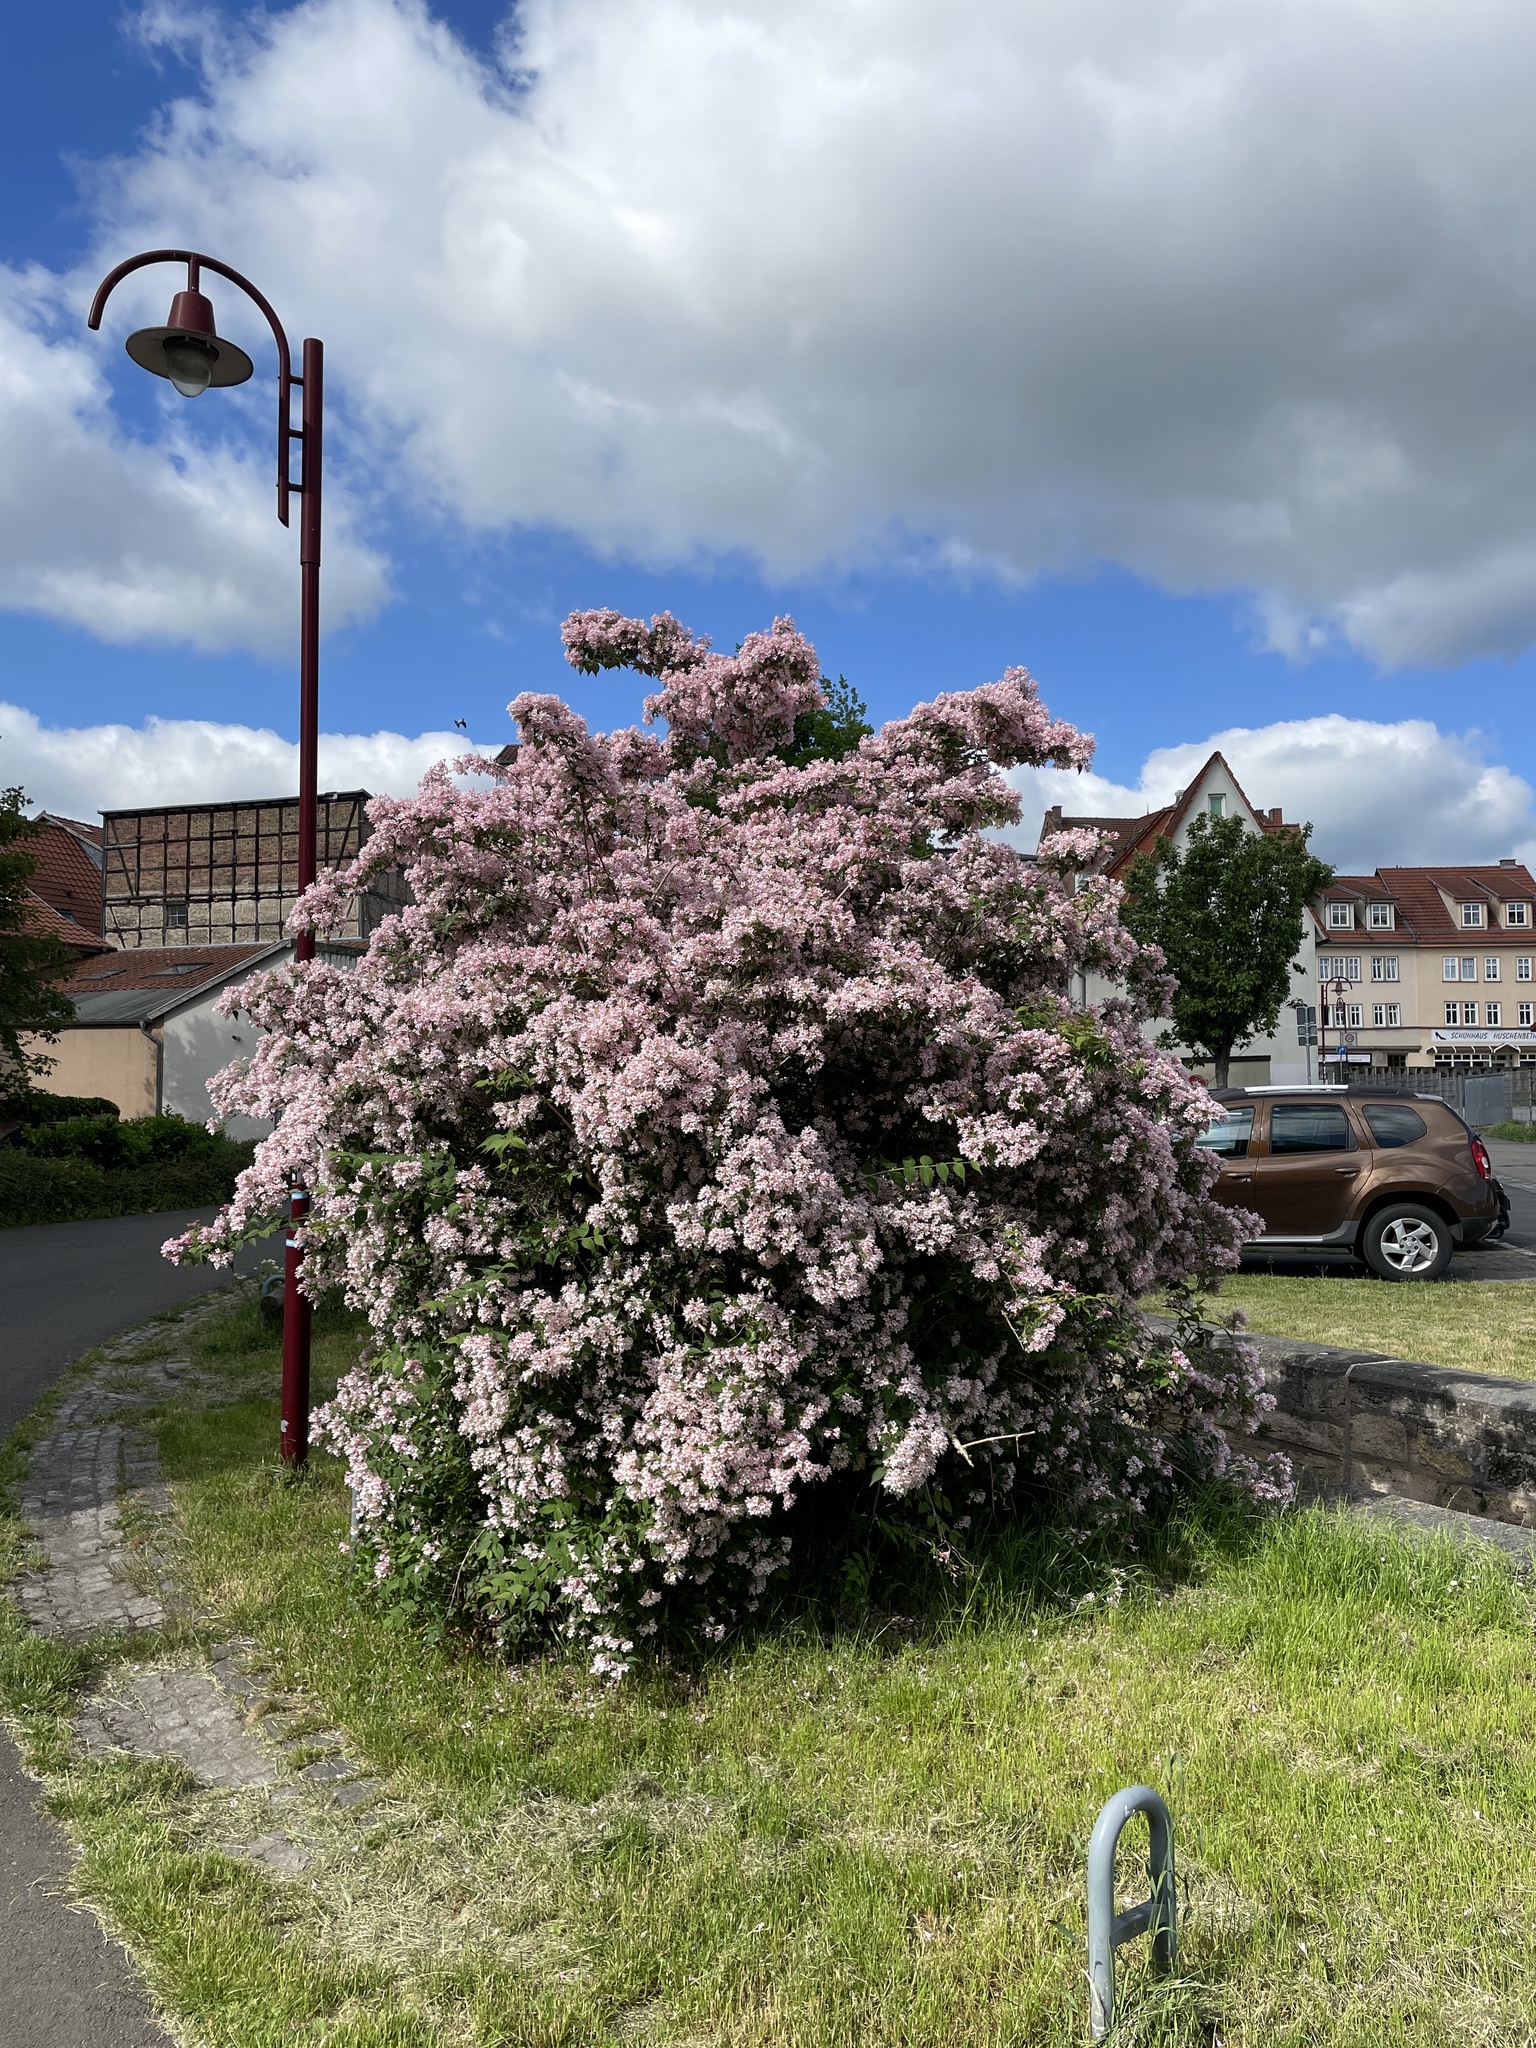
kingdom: Plantae
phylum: Tracheophyta
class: Magnoliopsida
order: Dipsacales
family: Caprifoliaceae
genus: Kolkwitzia
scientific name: Kolkwitzia amabilis
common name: Beautybush
